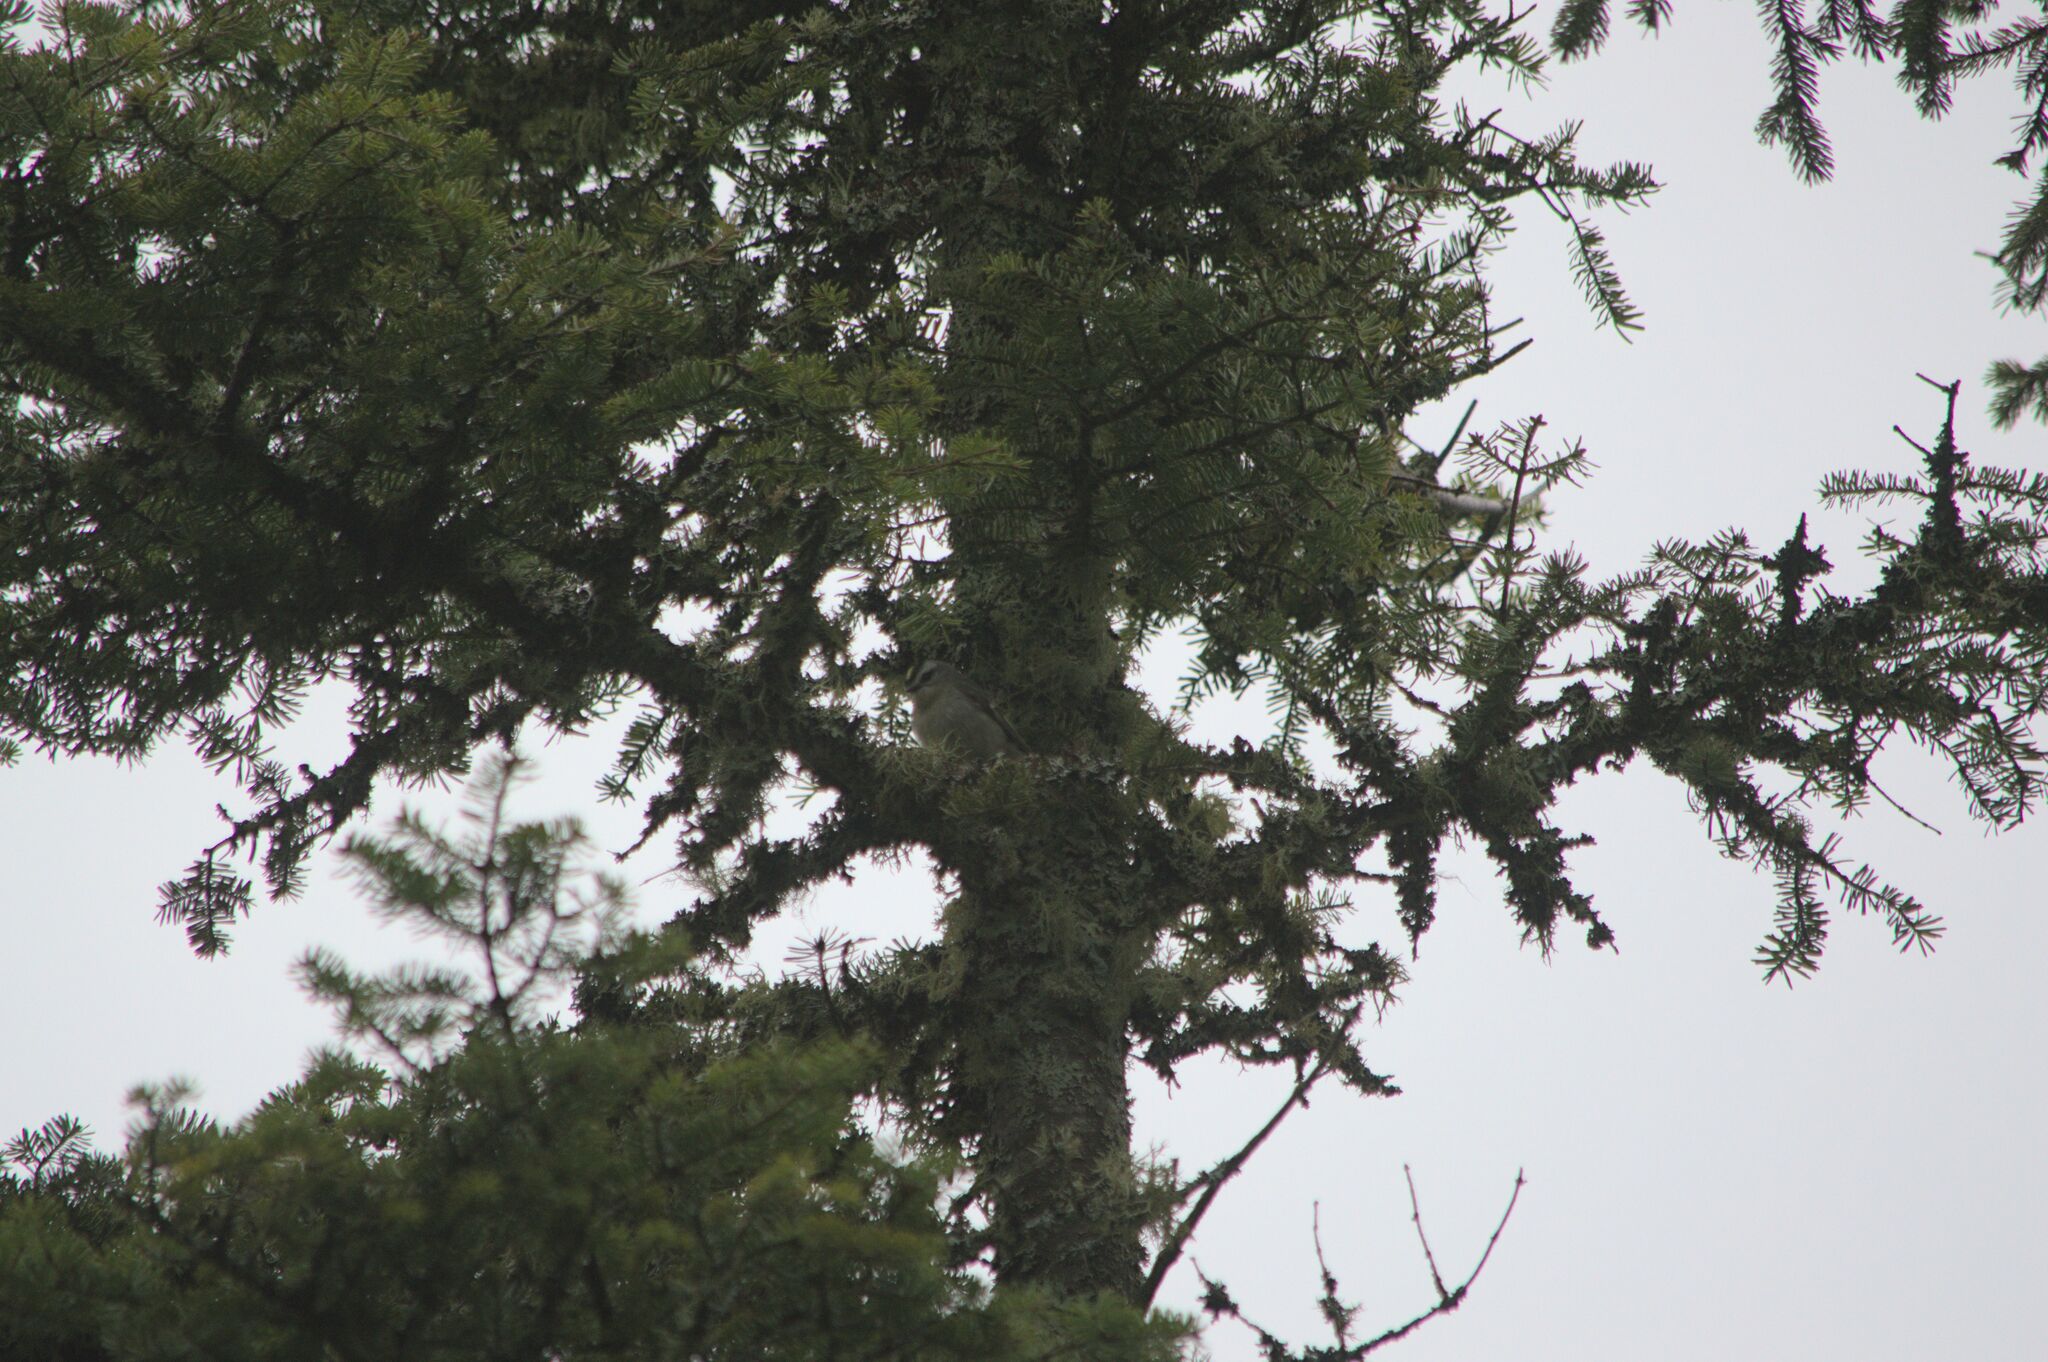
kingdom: Animalia
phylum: Chordata
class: Aves
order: Passeriformes
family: Regulidae
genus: Regulus
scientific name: Regulus satrapa
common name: Golden-crowned kinglet
